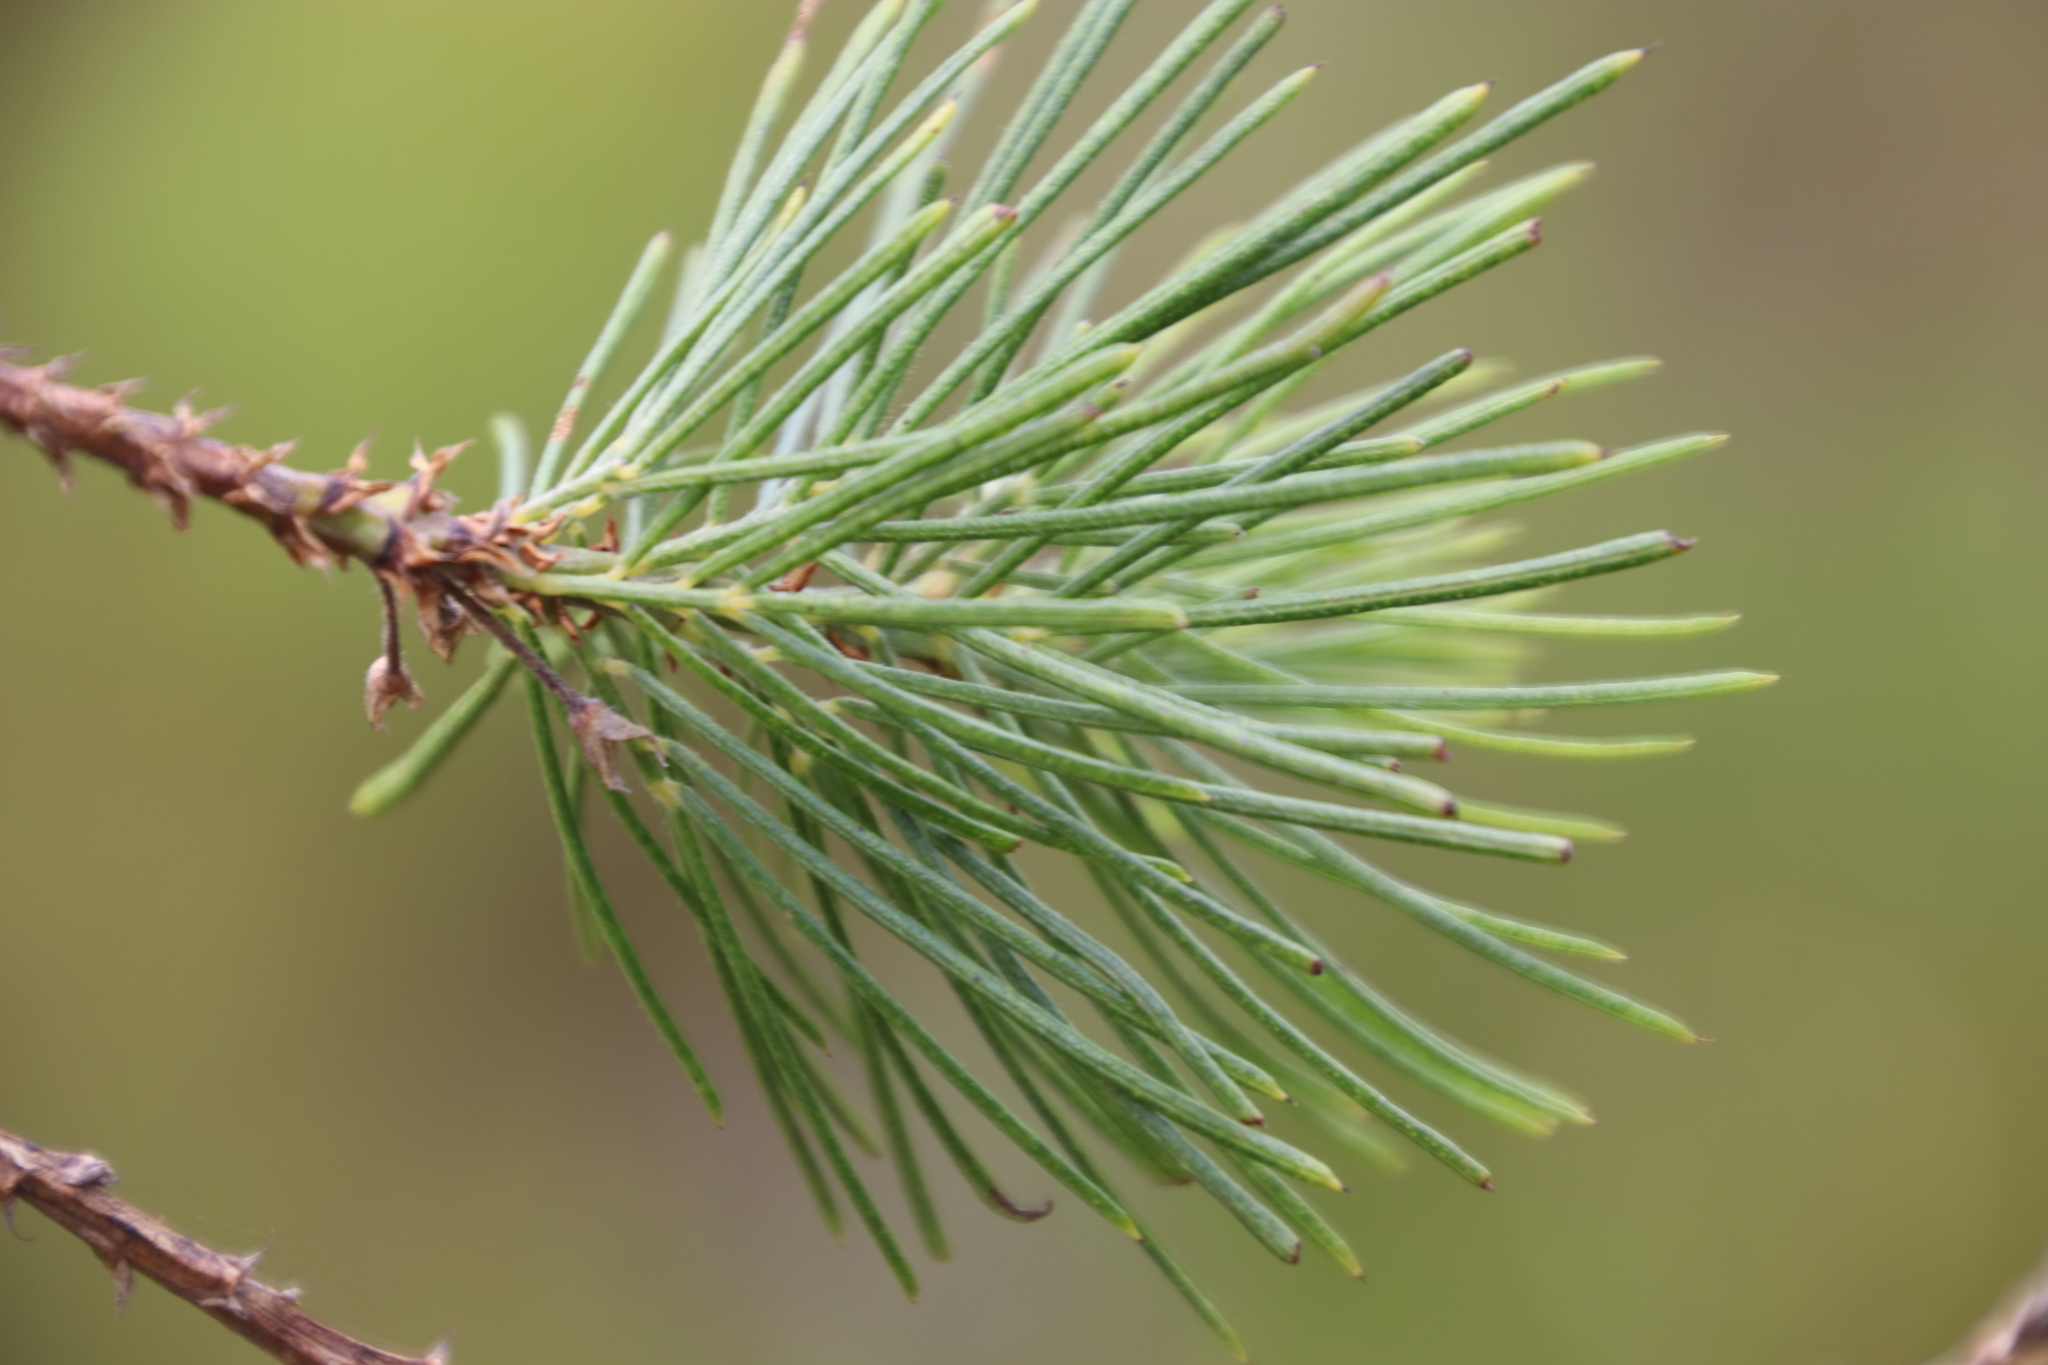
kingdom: Plantae
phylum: Tracheophyta
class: Magnoliopsida
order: Fabales
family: Fabaceae
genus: Psoralea
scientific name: Psoralea pinnata
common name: African scurfpea
